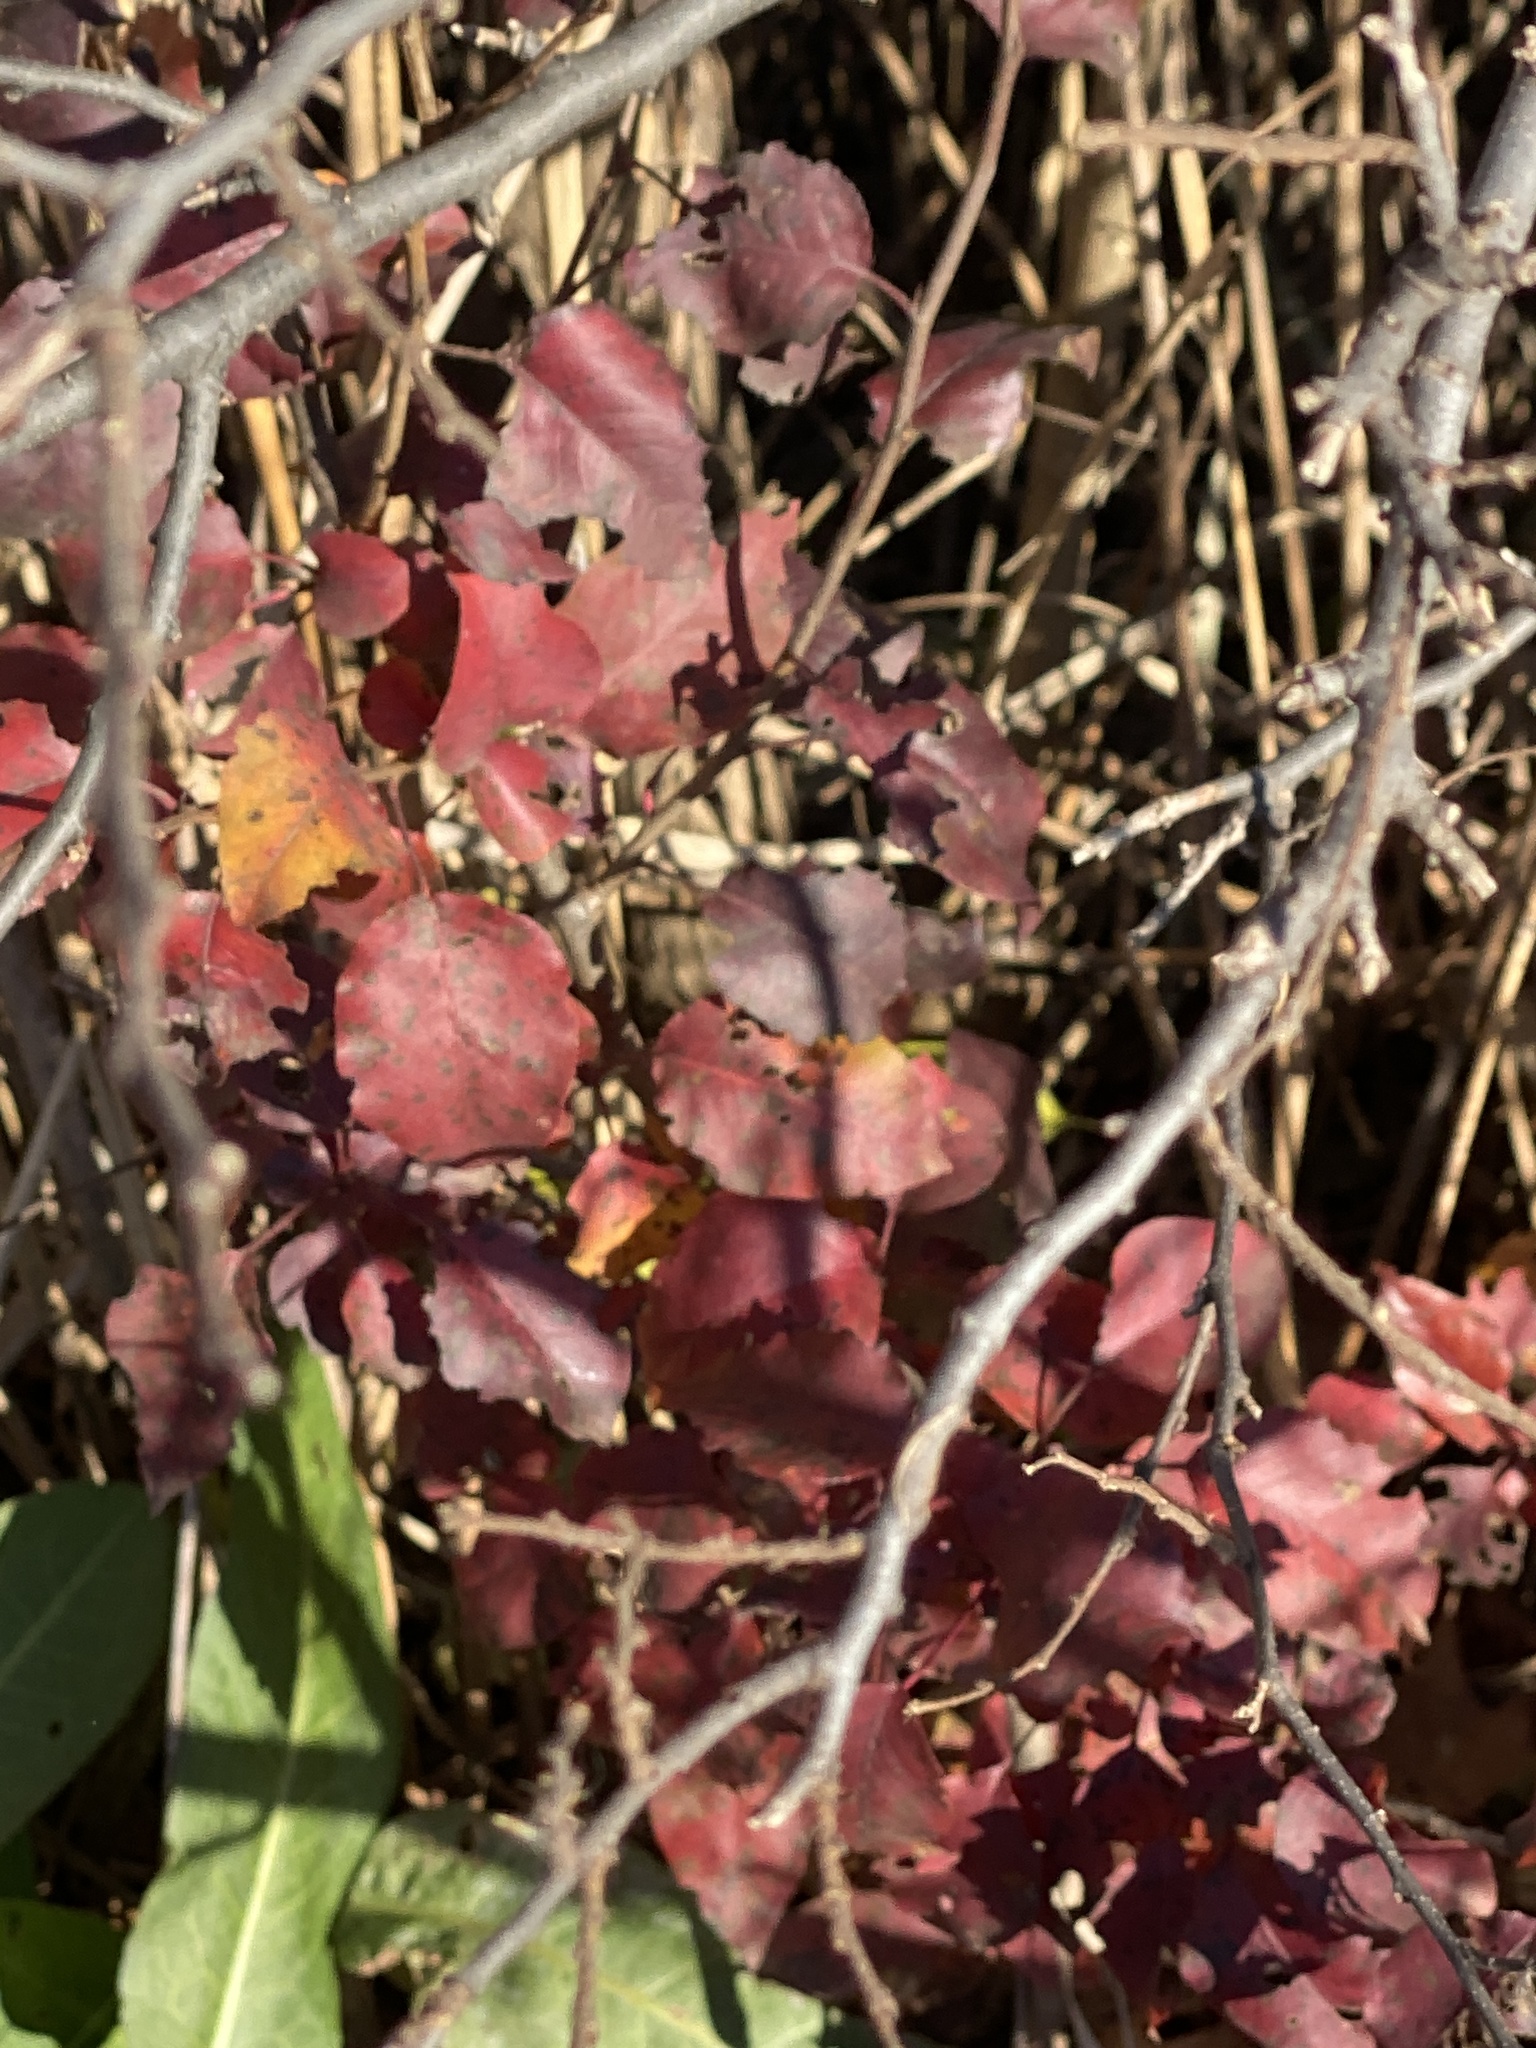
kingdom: Plantae
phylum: Tracheophyta
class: Magnoliopsida
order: Rosales
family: Rosaceae
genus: Pyrus
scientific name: Pyrus calleryana
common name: Callery pear
